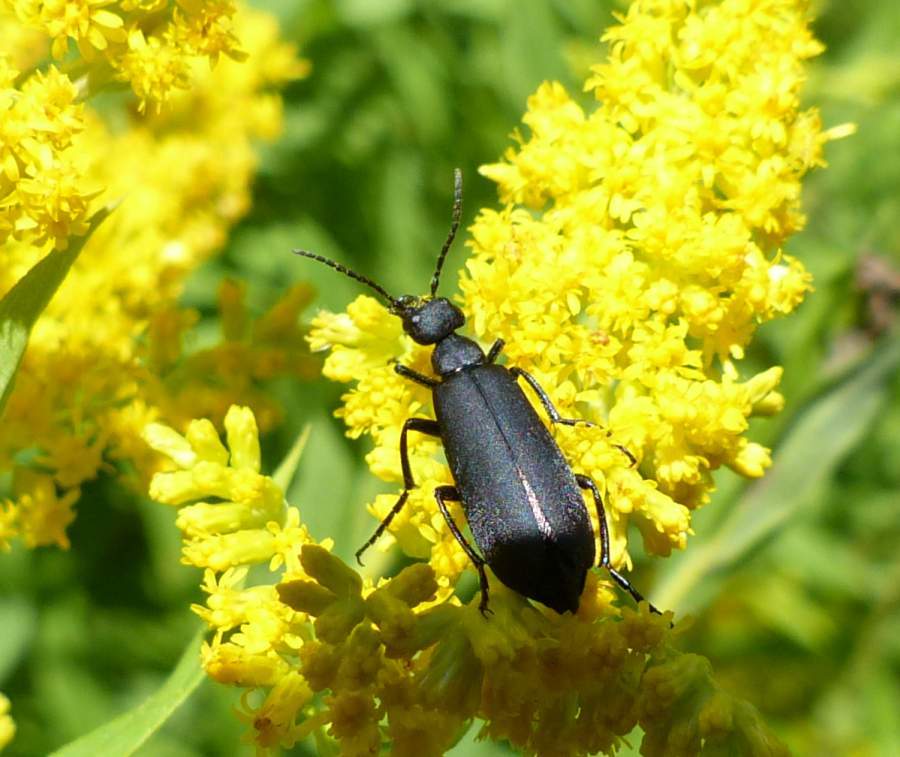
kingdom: Animalia
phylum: Arthropoda
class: Insecta
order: Coleoptera
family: Meloidae
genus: Epicauta
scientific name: Epicauta pensylvanica
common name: Black blister beetle
